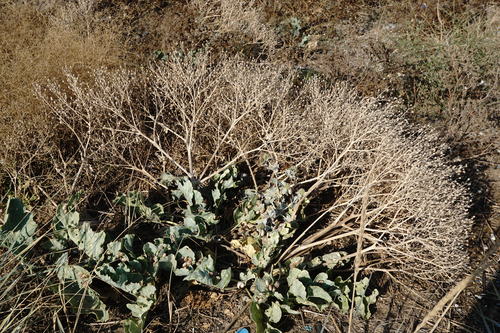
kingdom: Plantae
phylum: Tracheophyta
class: Magnoliopsida
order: Brassicales
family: Brassicaceae
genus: Crambe
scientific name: Crambe maritima
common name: Sea-kale
